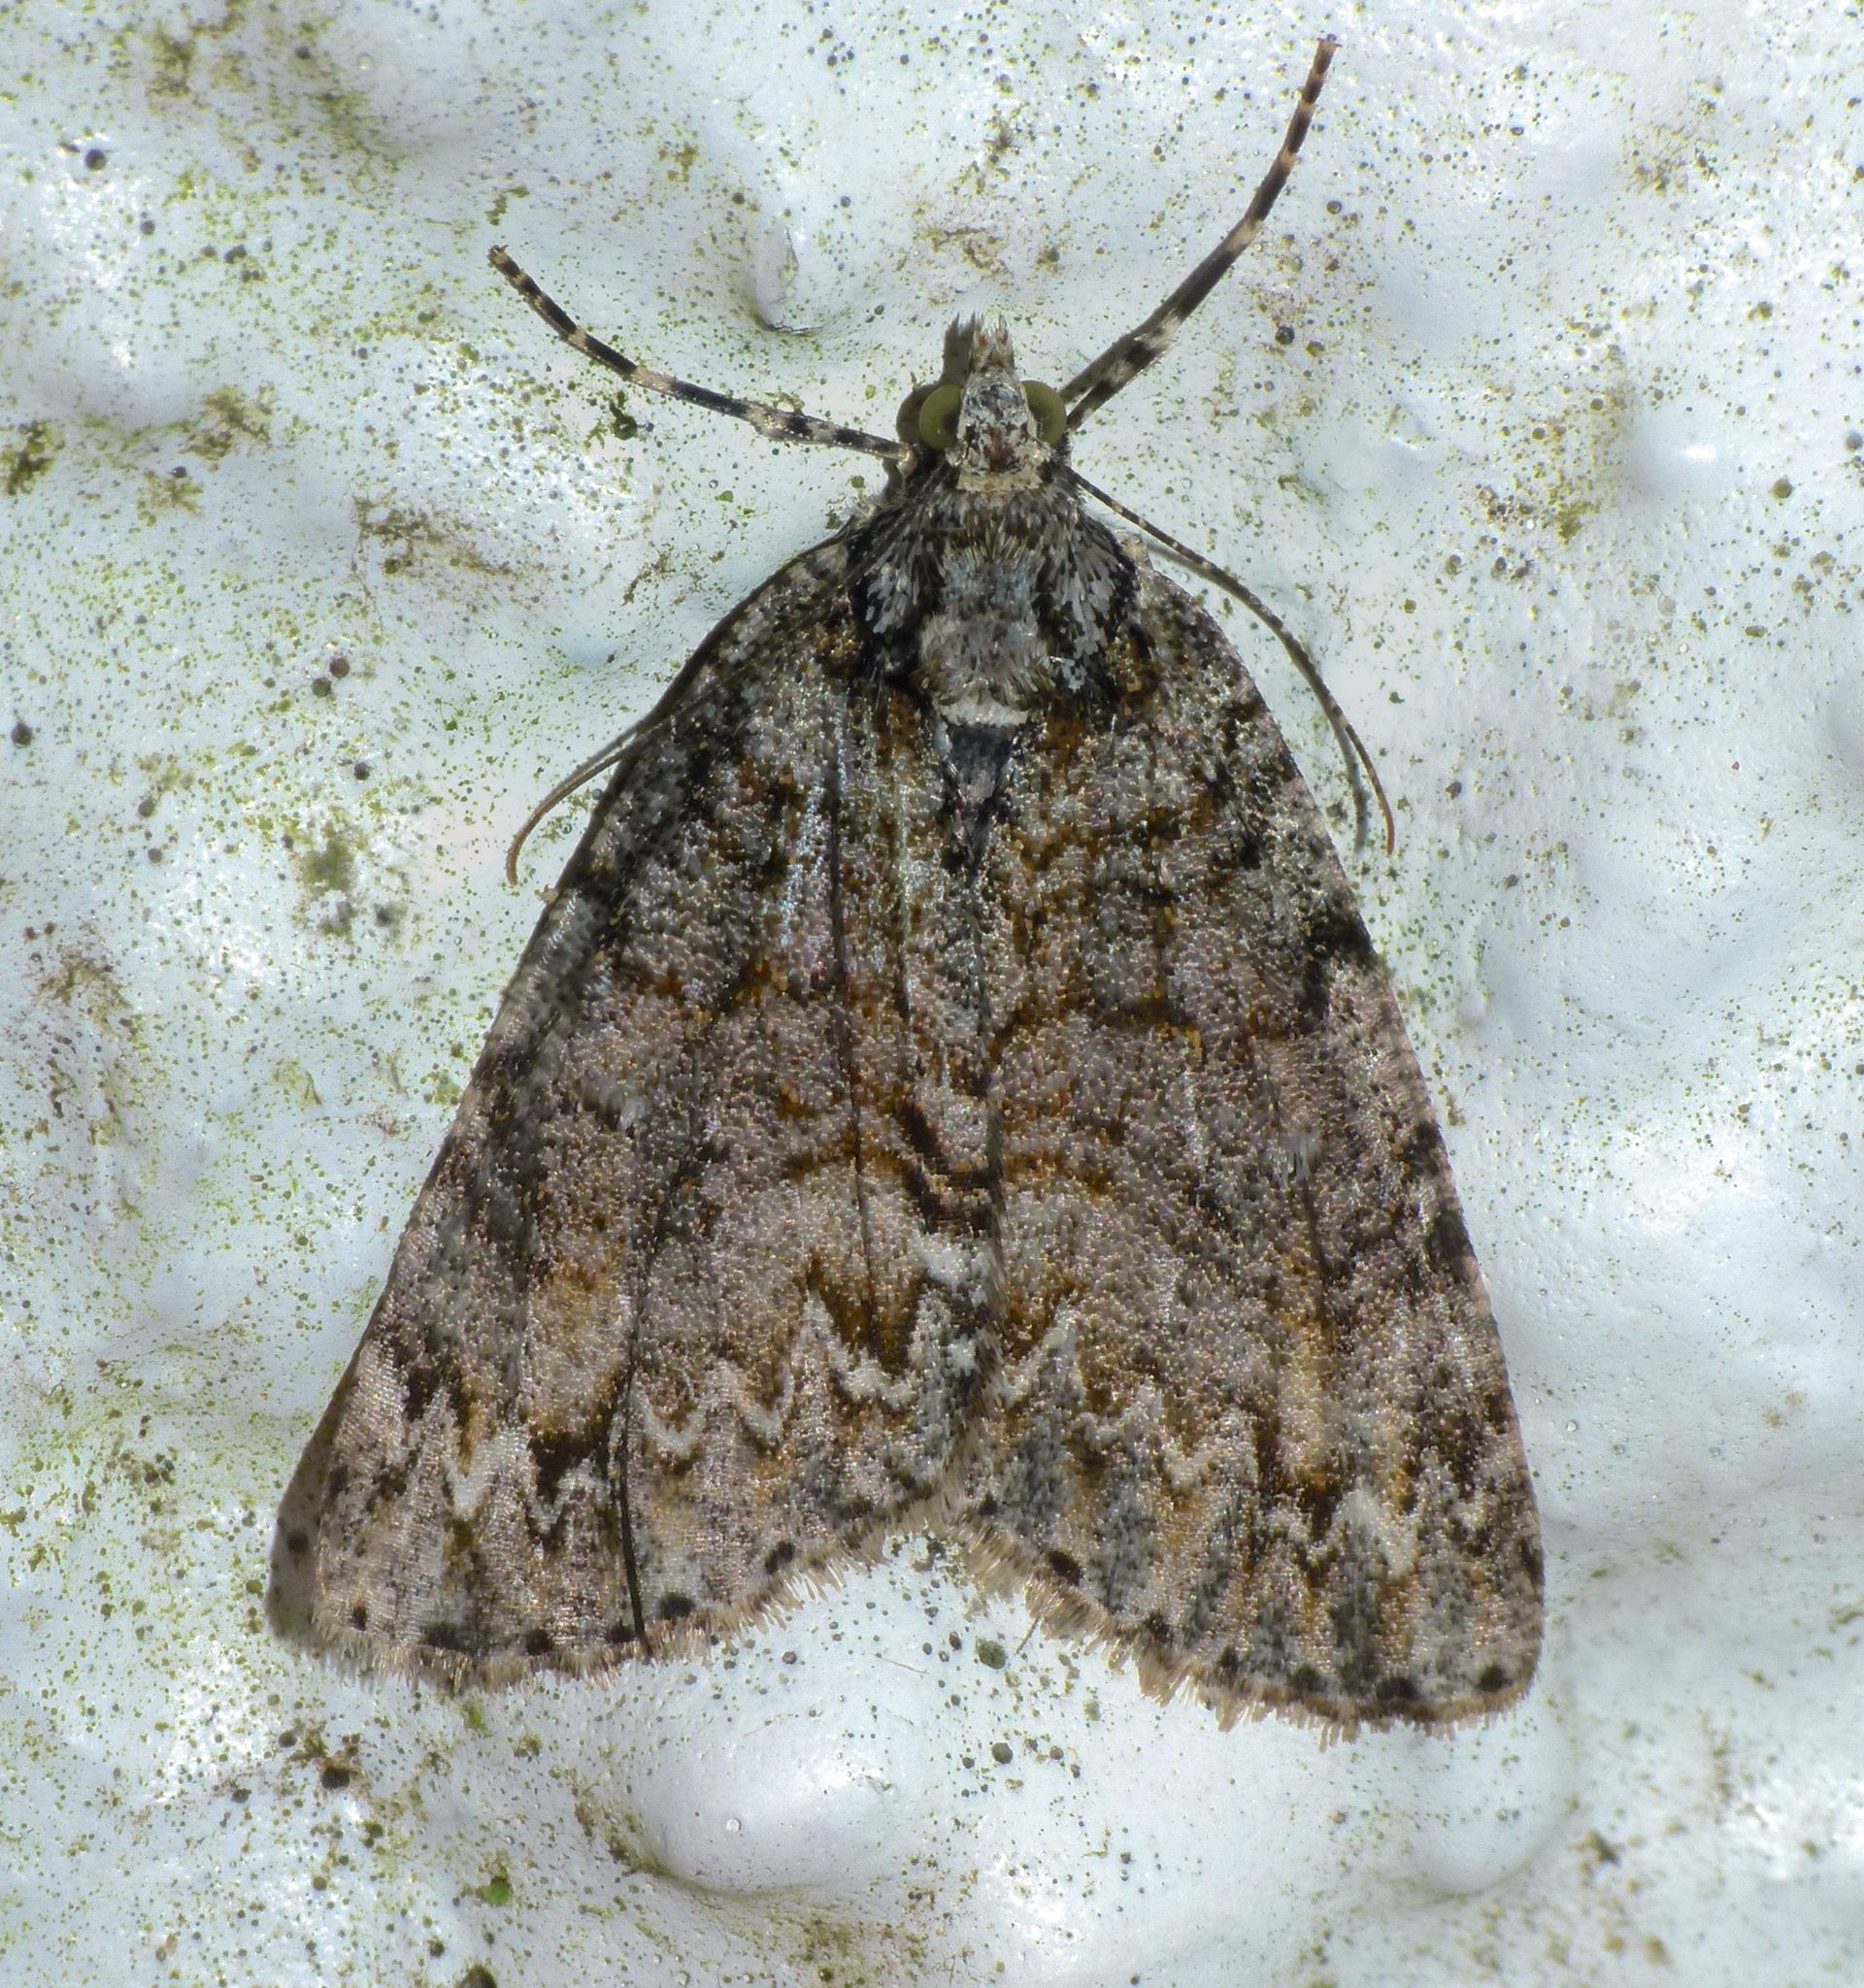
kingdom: Animalia
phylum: Arthropoda
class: Insecta
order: Lepidoptera
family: Geometridae
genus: Pseudocoremia
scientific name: Pseudocoremia suavis
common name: Common forest looper
